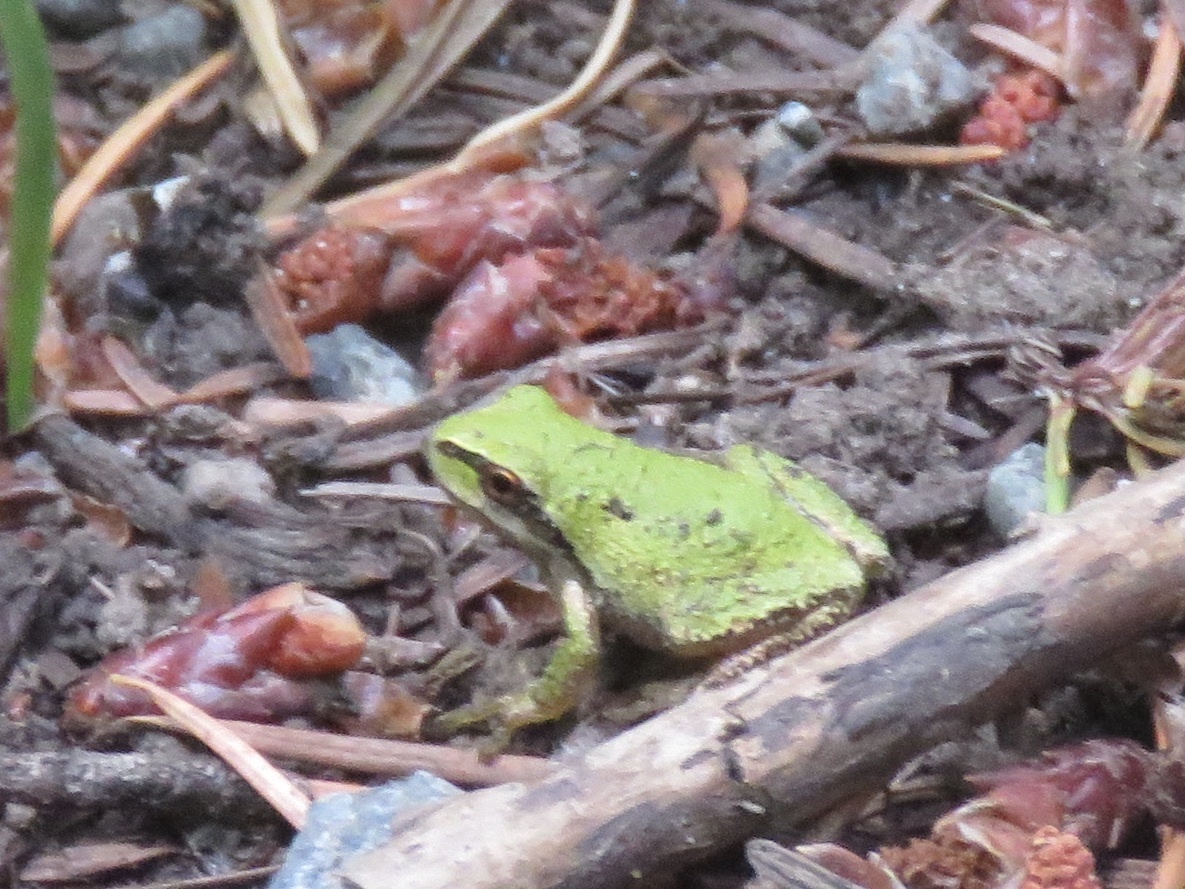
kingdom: Animalia
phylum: Chordata
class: Amphibia
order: Anura
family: Hylidae
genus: Pseudacris
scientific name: Pseudacris regilla
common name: Pacific chorus frog
